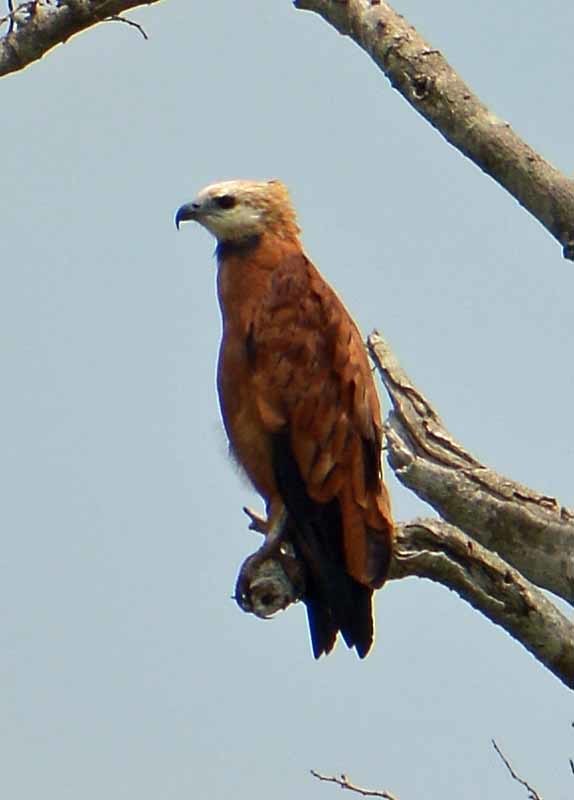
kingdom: Animalia
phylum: Chordata
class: Aves
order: Accipitriformes
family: Accipitridae
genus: Busarellus
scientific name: Busarellus nigricollis
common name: Black-collared hawk
